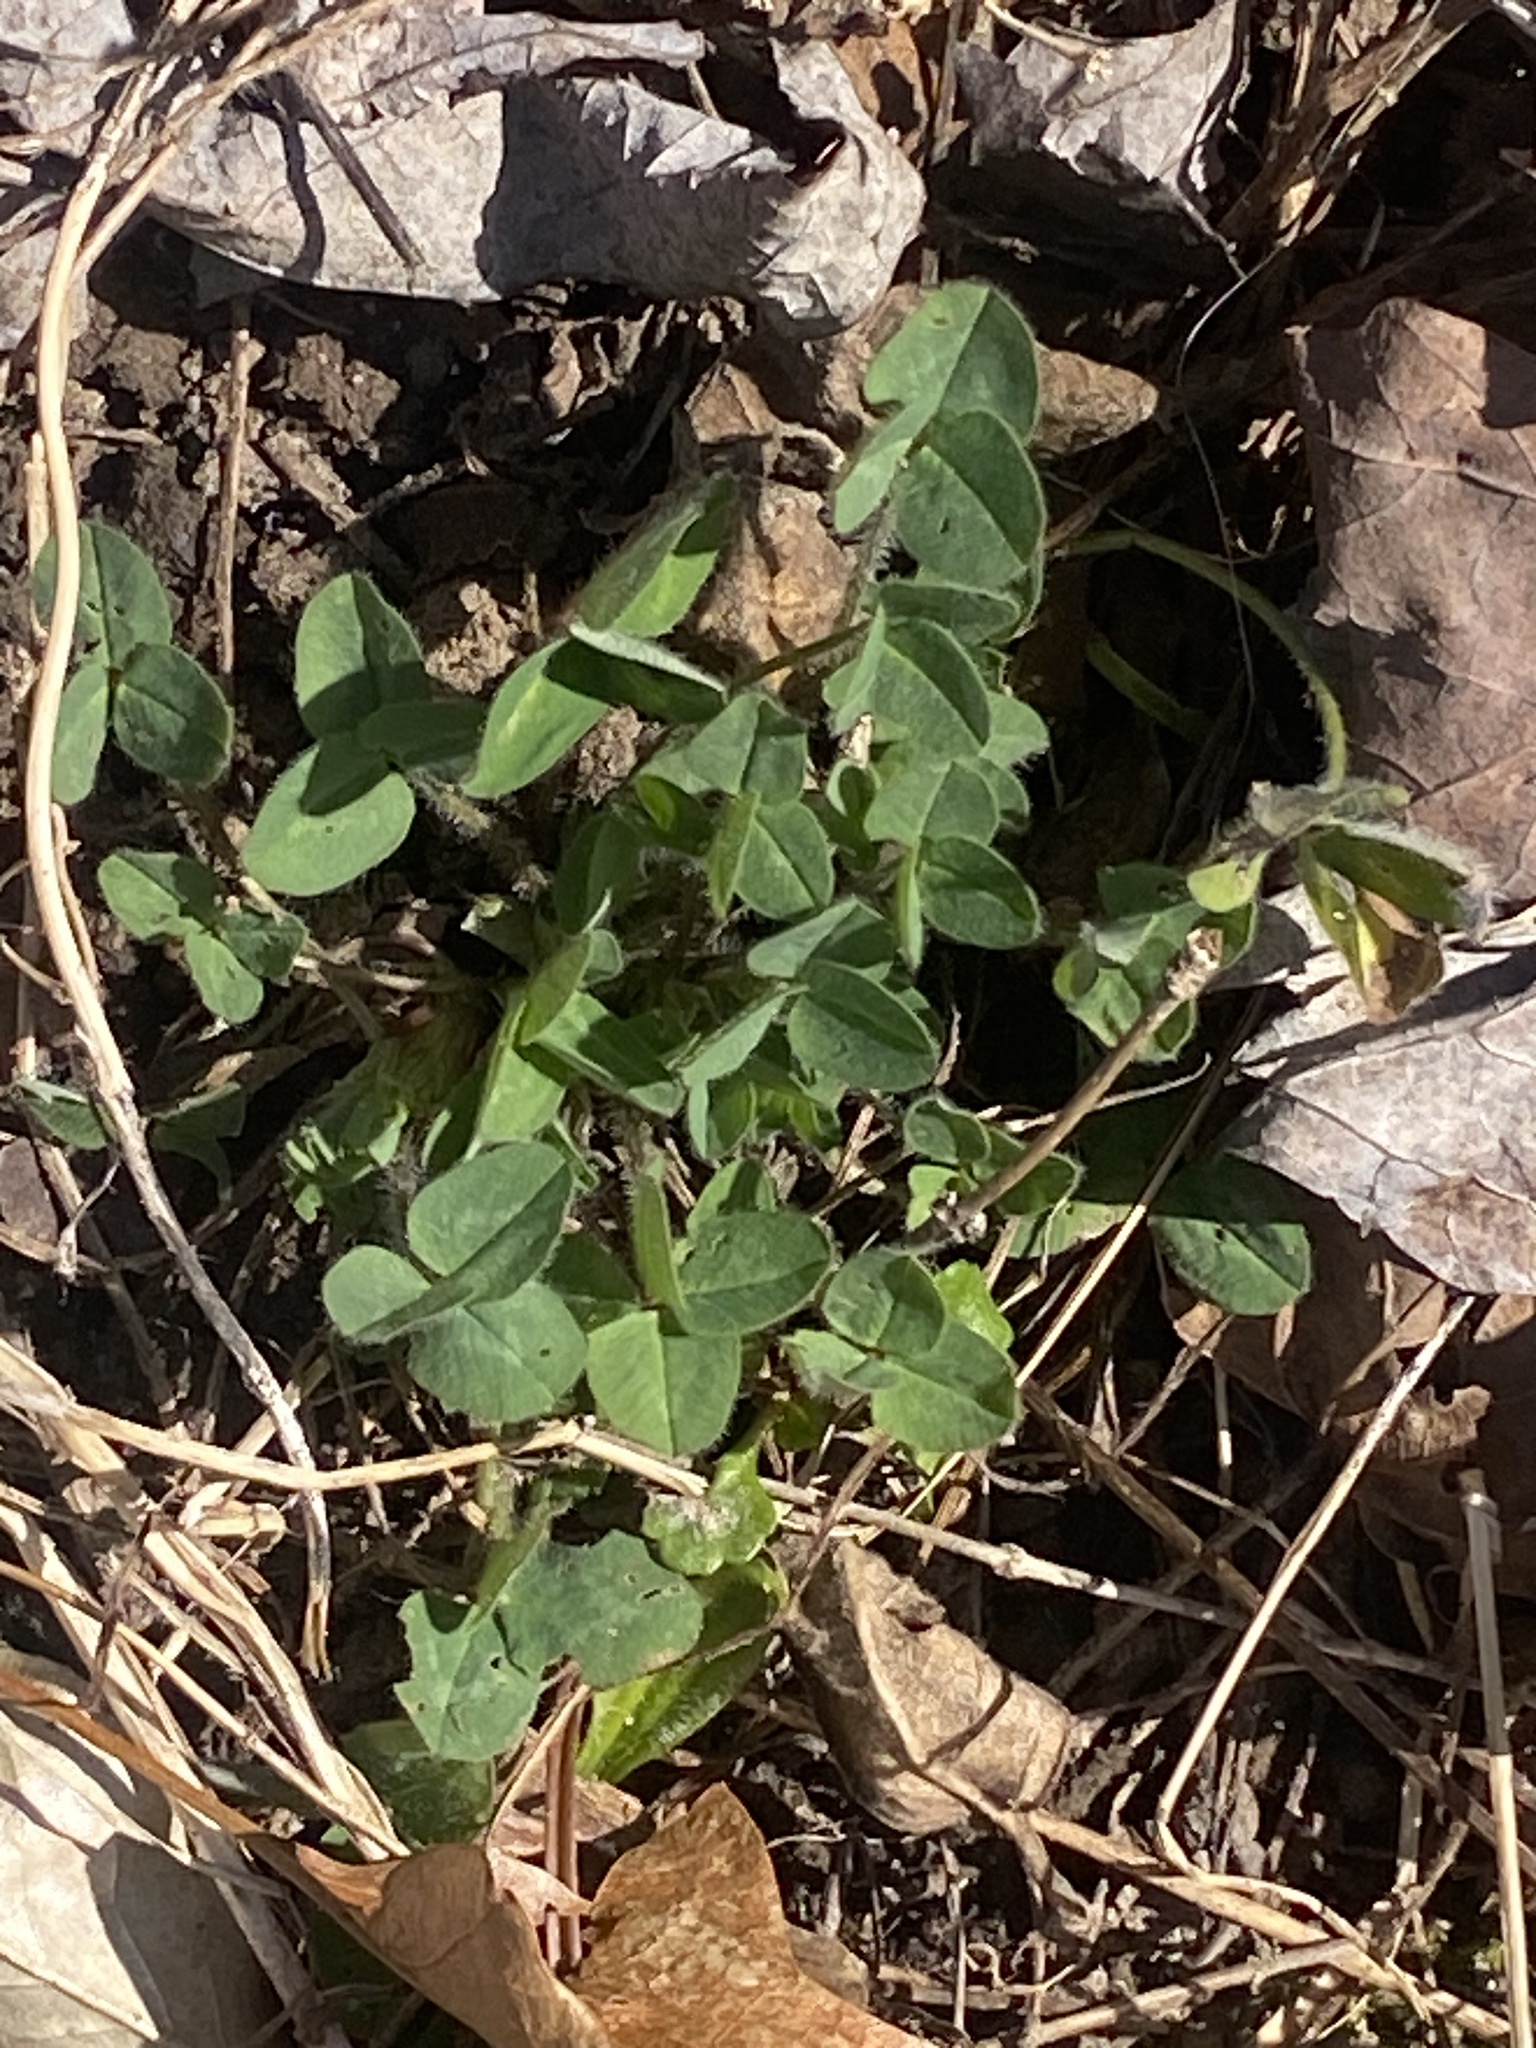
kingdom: Plantae
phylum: Tracheophyta
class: Magnoliopsida
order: Fabales
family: Fabaceae
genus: Trifolium
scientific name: Trifolium pratense
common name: Red clover
